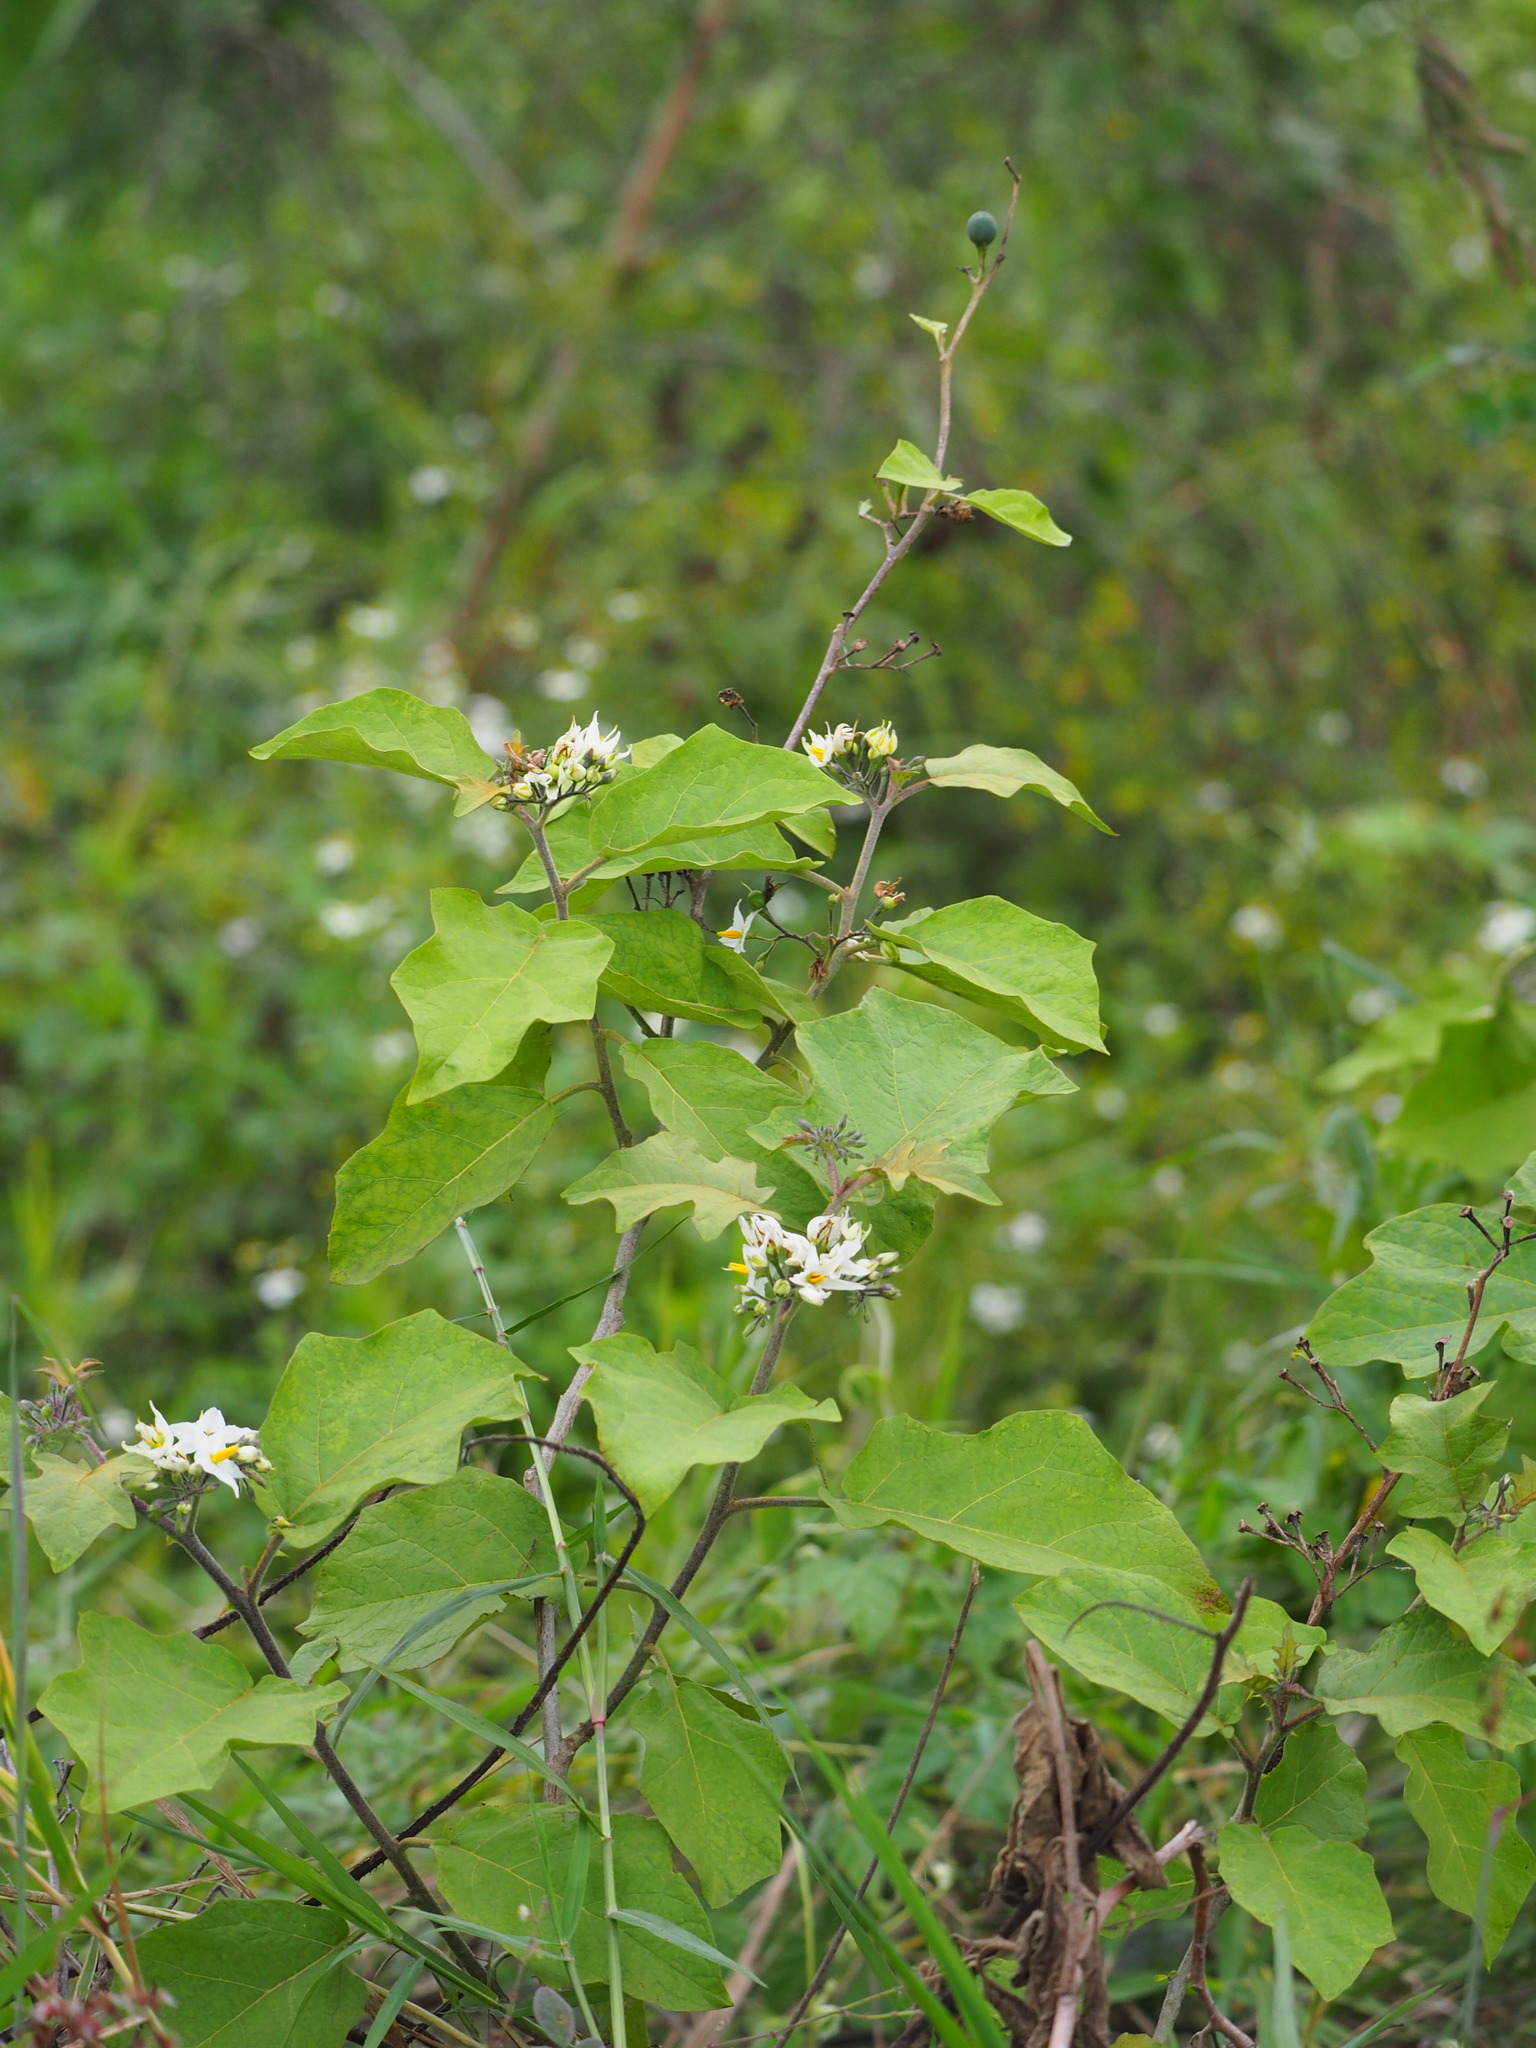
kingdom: Plantae
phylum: Tracheophyta
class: Magnoliopsida
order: Solanales
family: Solanaceae
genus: Solanum
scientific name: Solanum torvum
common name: Turkey berry
